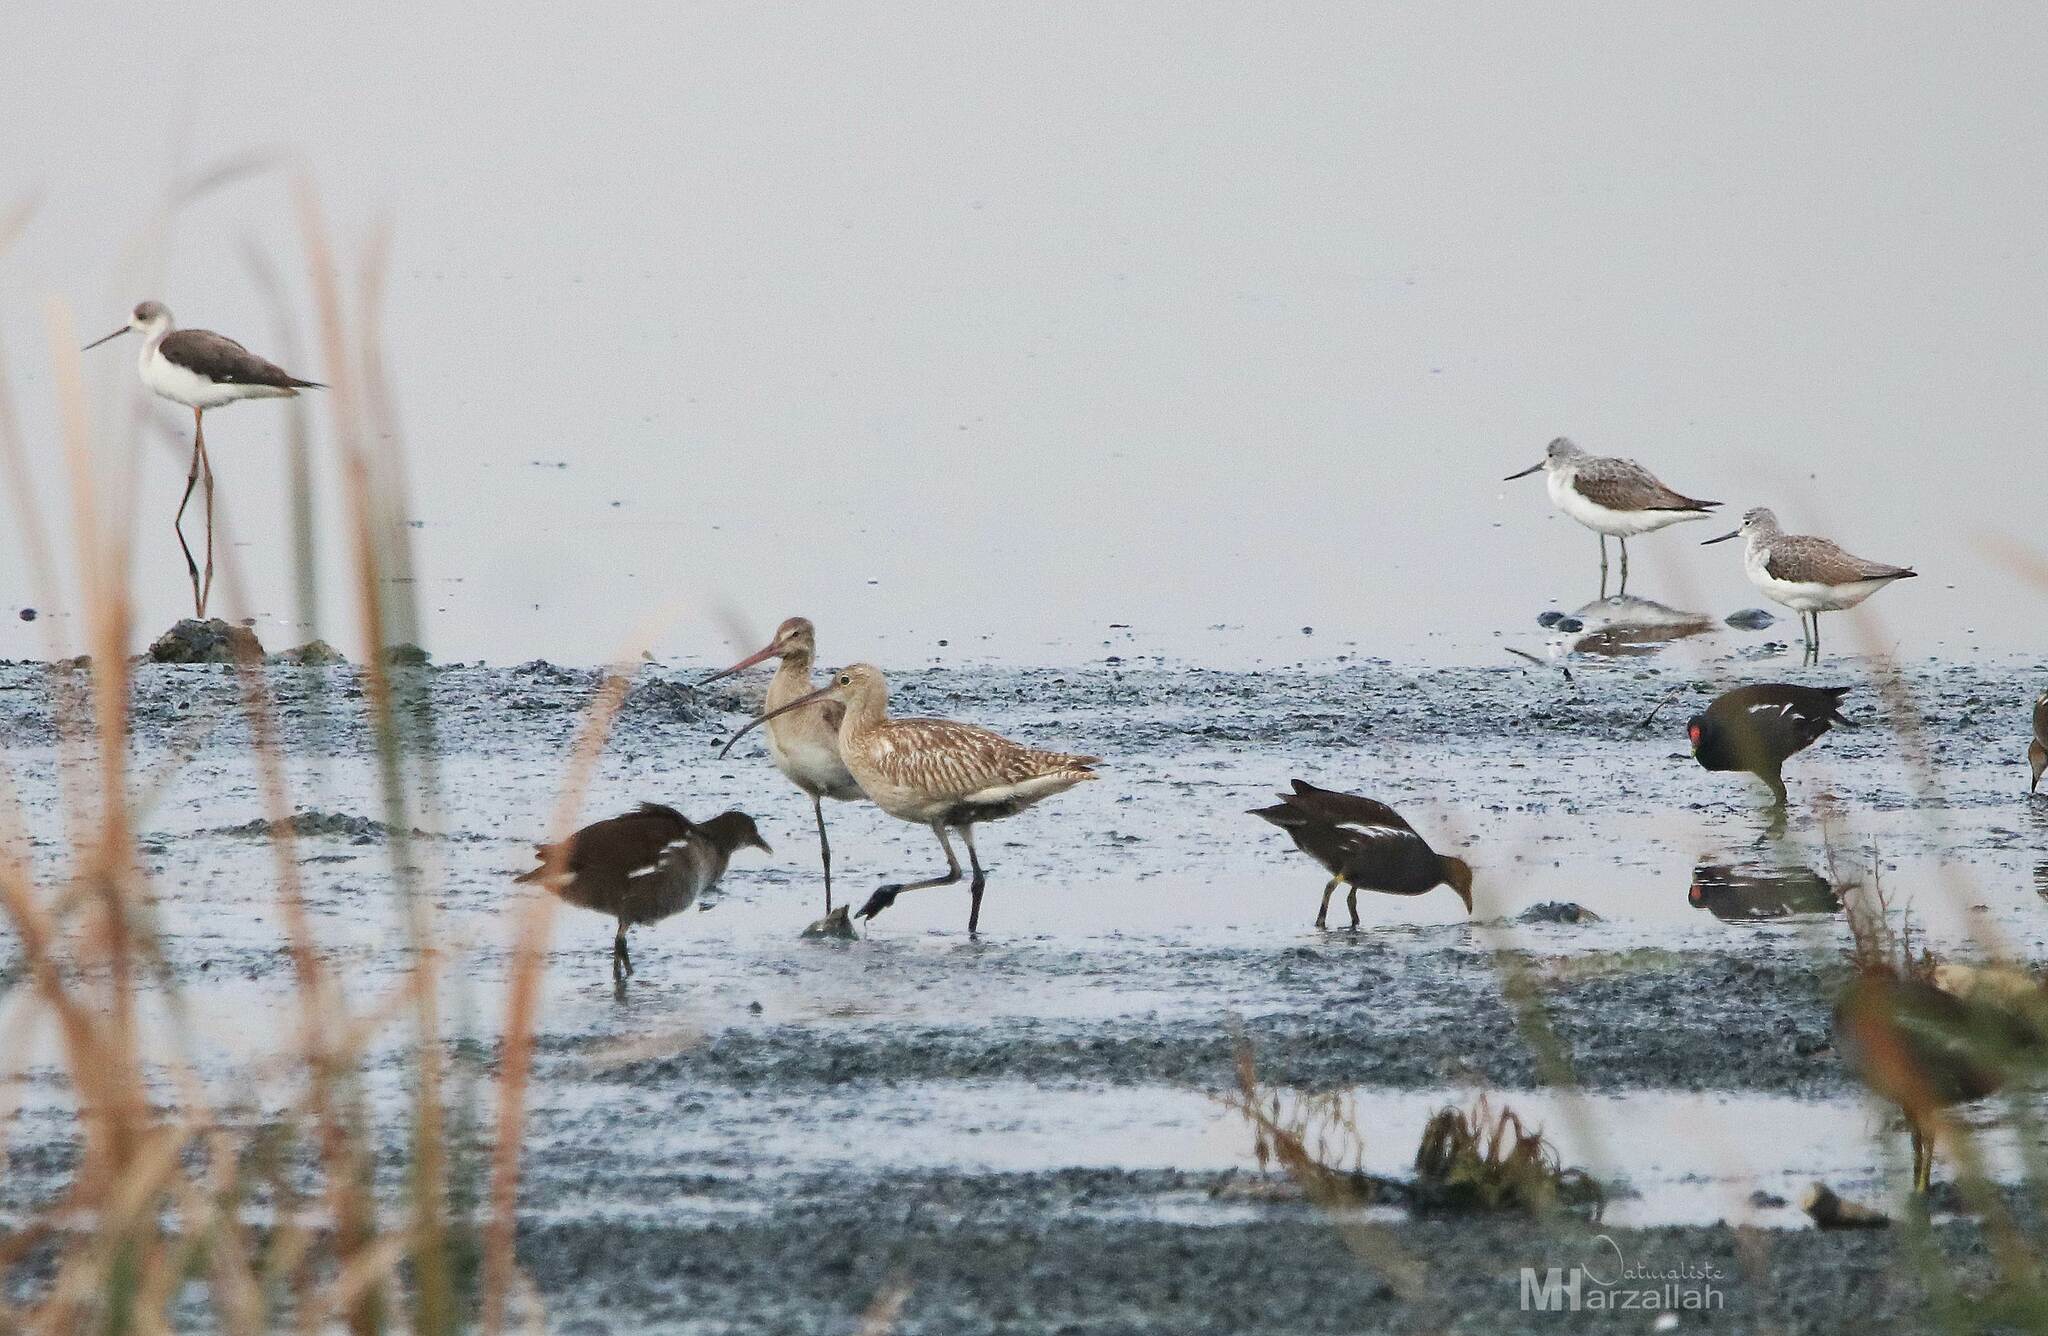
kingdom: Animalia
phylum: Chordata
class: Aves
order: Charadriiformes
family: Scolopacidae
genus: Numenius
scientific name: Numenius arquata
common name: Eurasian curlew
